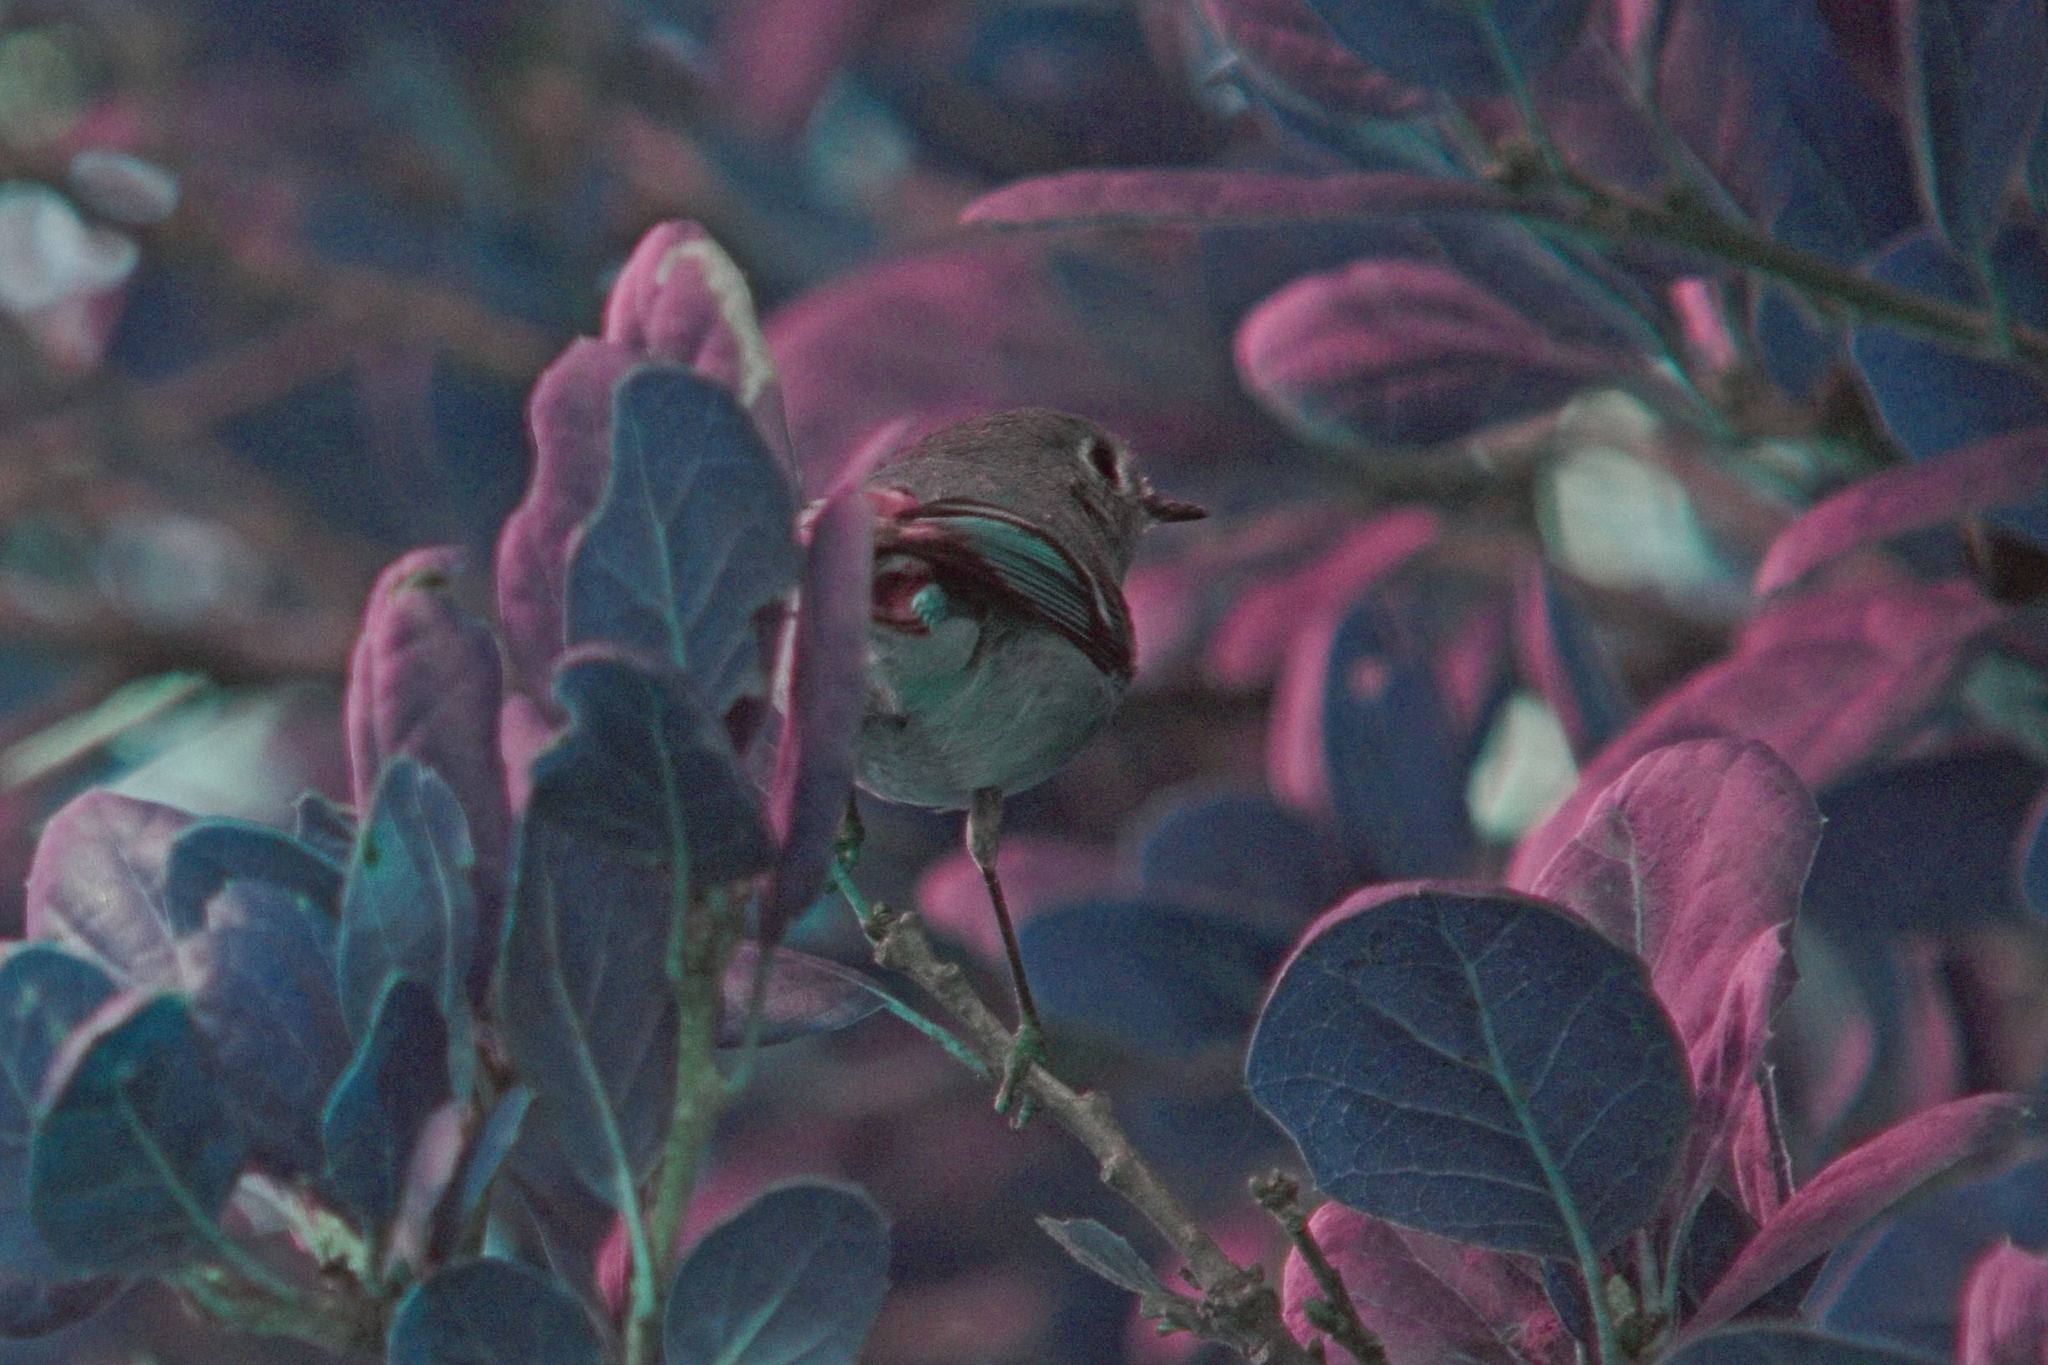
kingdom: Animalia
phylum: Chordata
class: Aves
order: Passeriformes
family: Regulidae
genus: Regulus
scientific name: Regulus calendula
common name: Ruby-crowned kinglet
